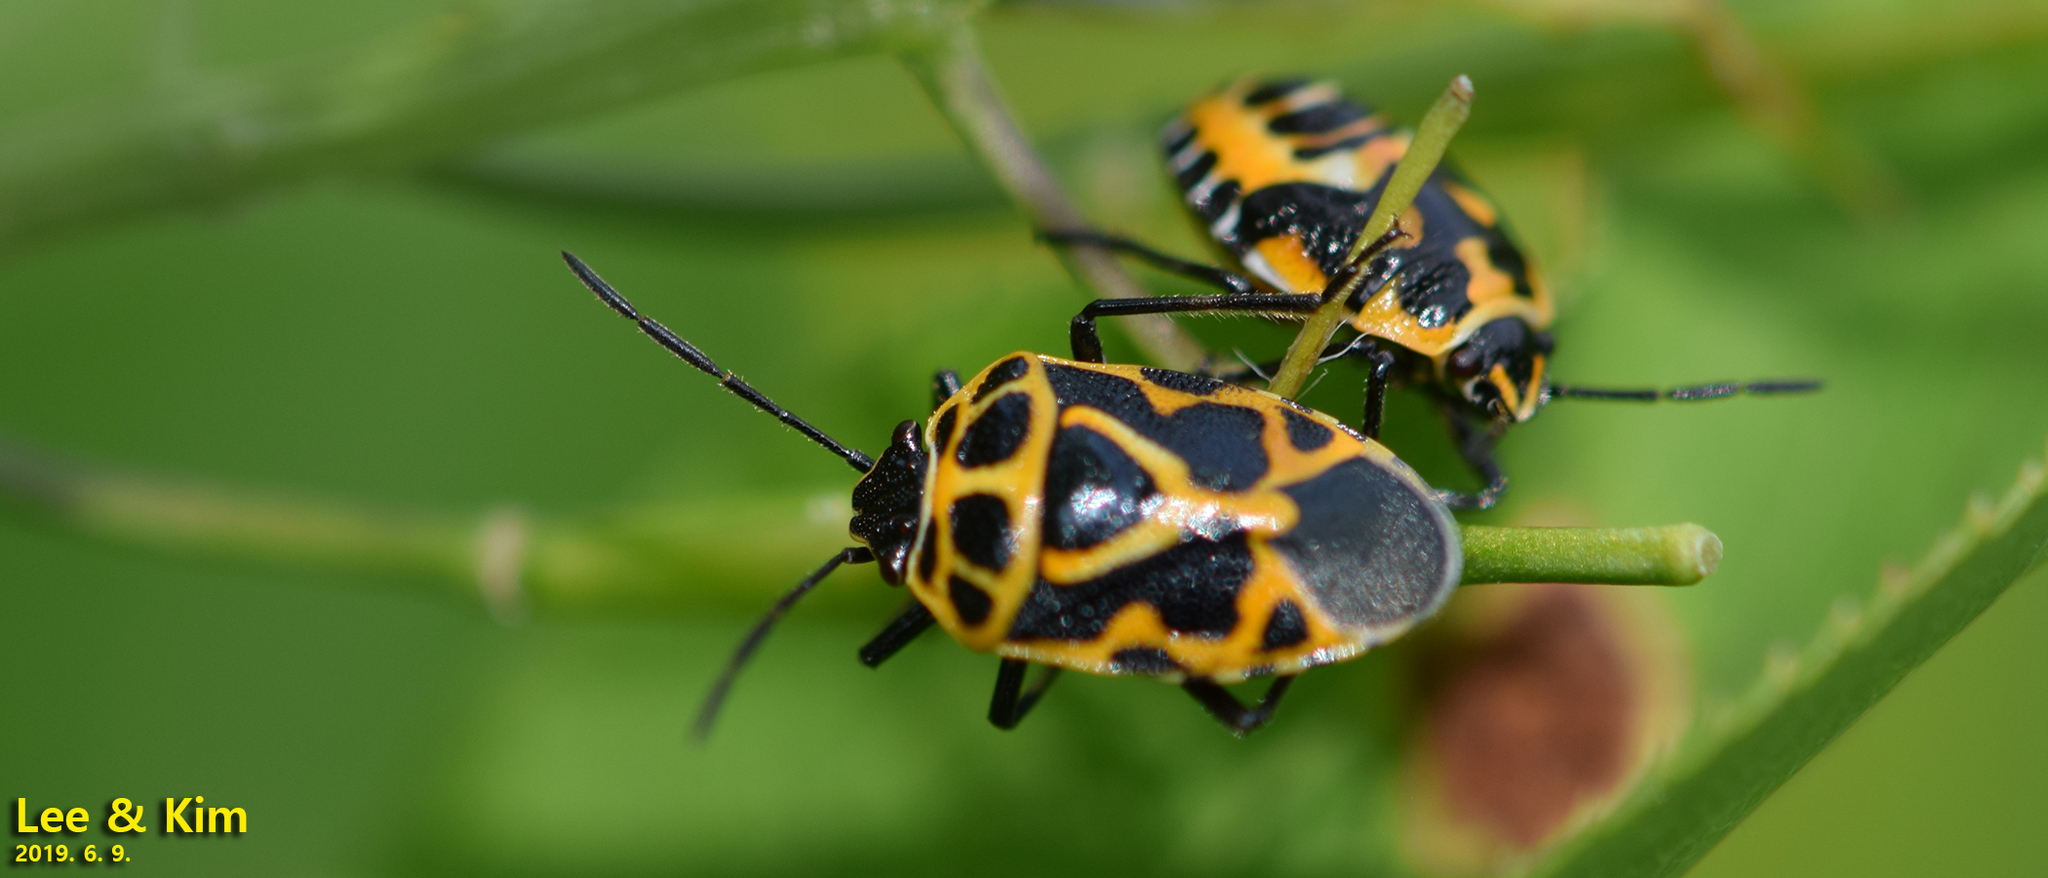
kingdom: Animalia
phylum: Arthropoda
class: Insecta
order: Hemiptera
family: Pentatomidae
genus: Eurydema
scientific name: Eurydema dominulus
